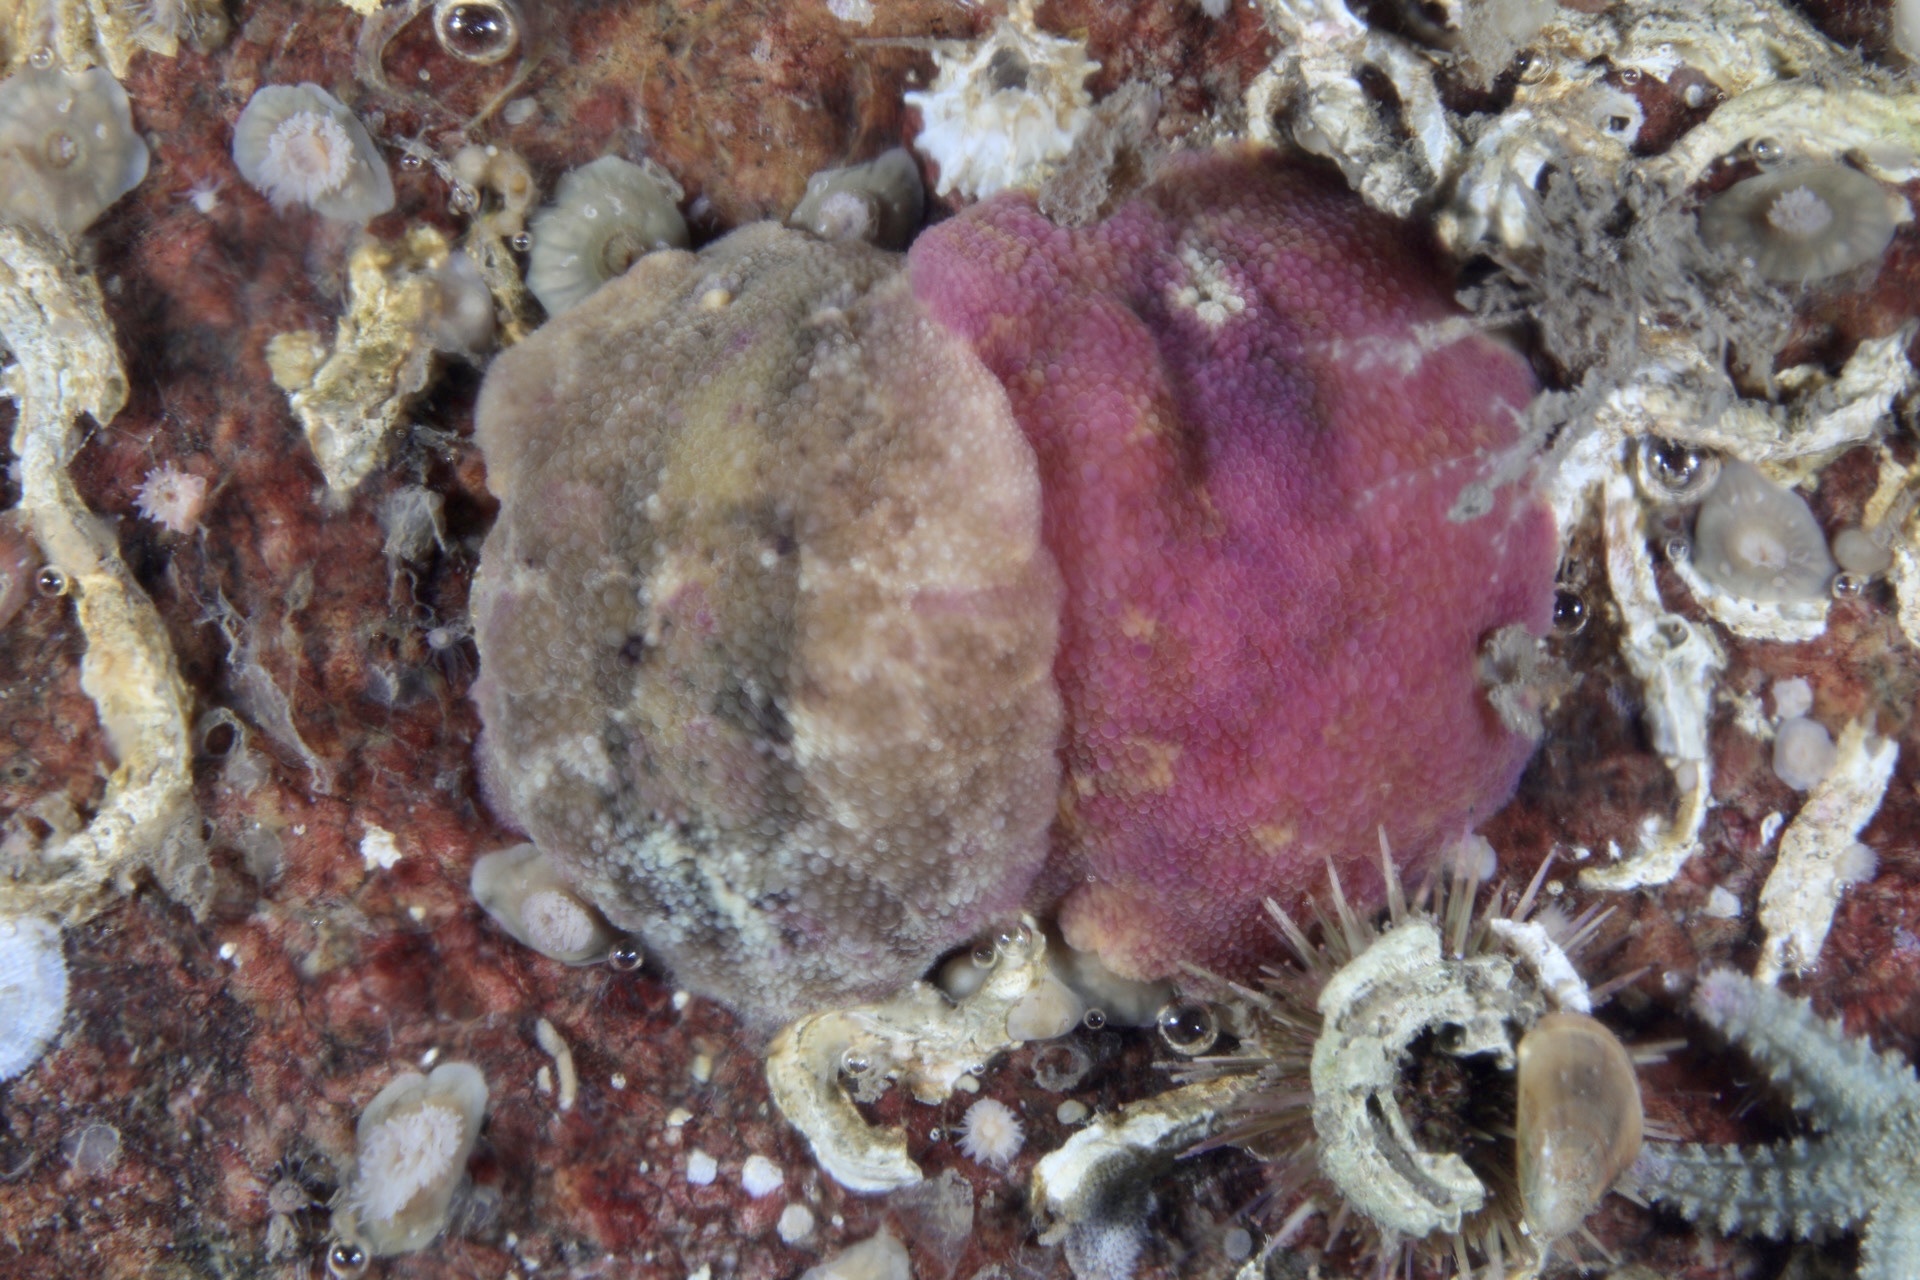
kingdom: Animalia
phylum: Mollusca
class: Gastropoda
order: Nudibranchia
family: Dorididae
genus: Doris
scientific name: Doris pseudoargus
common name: Sea lemon
